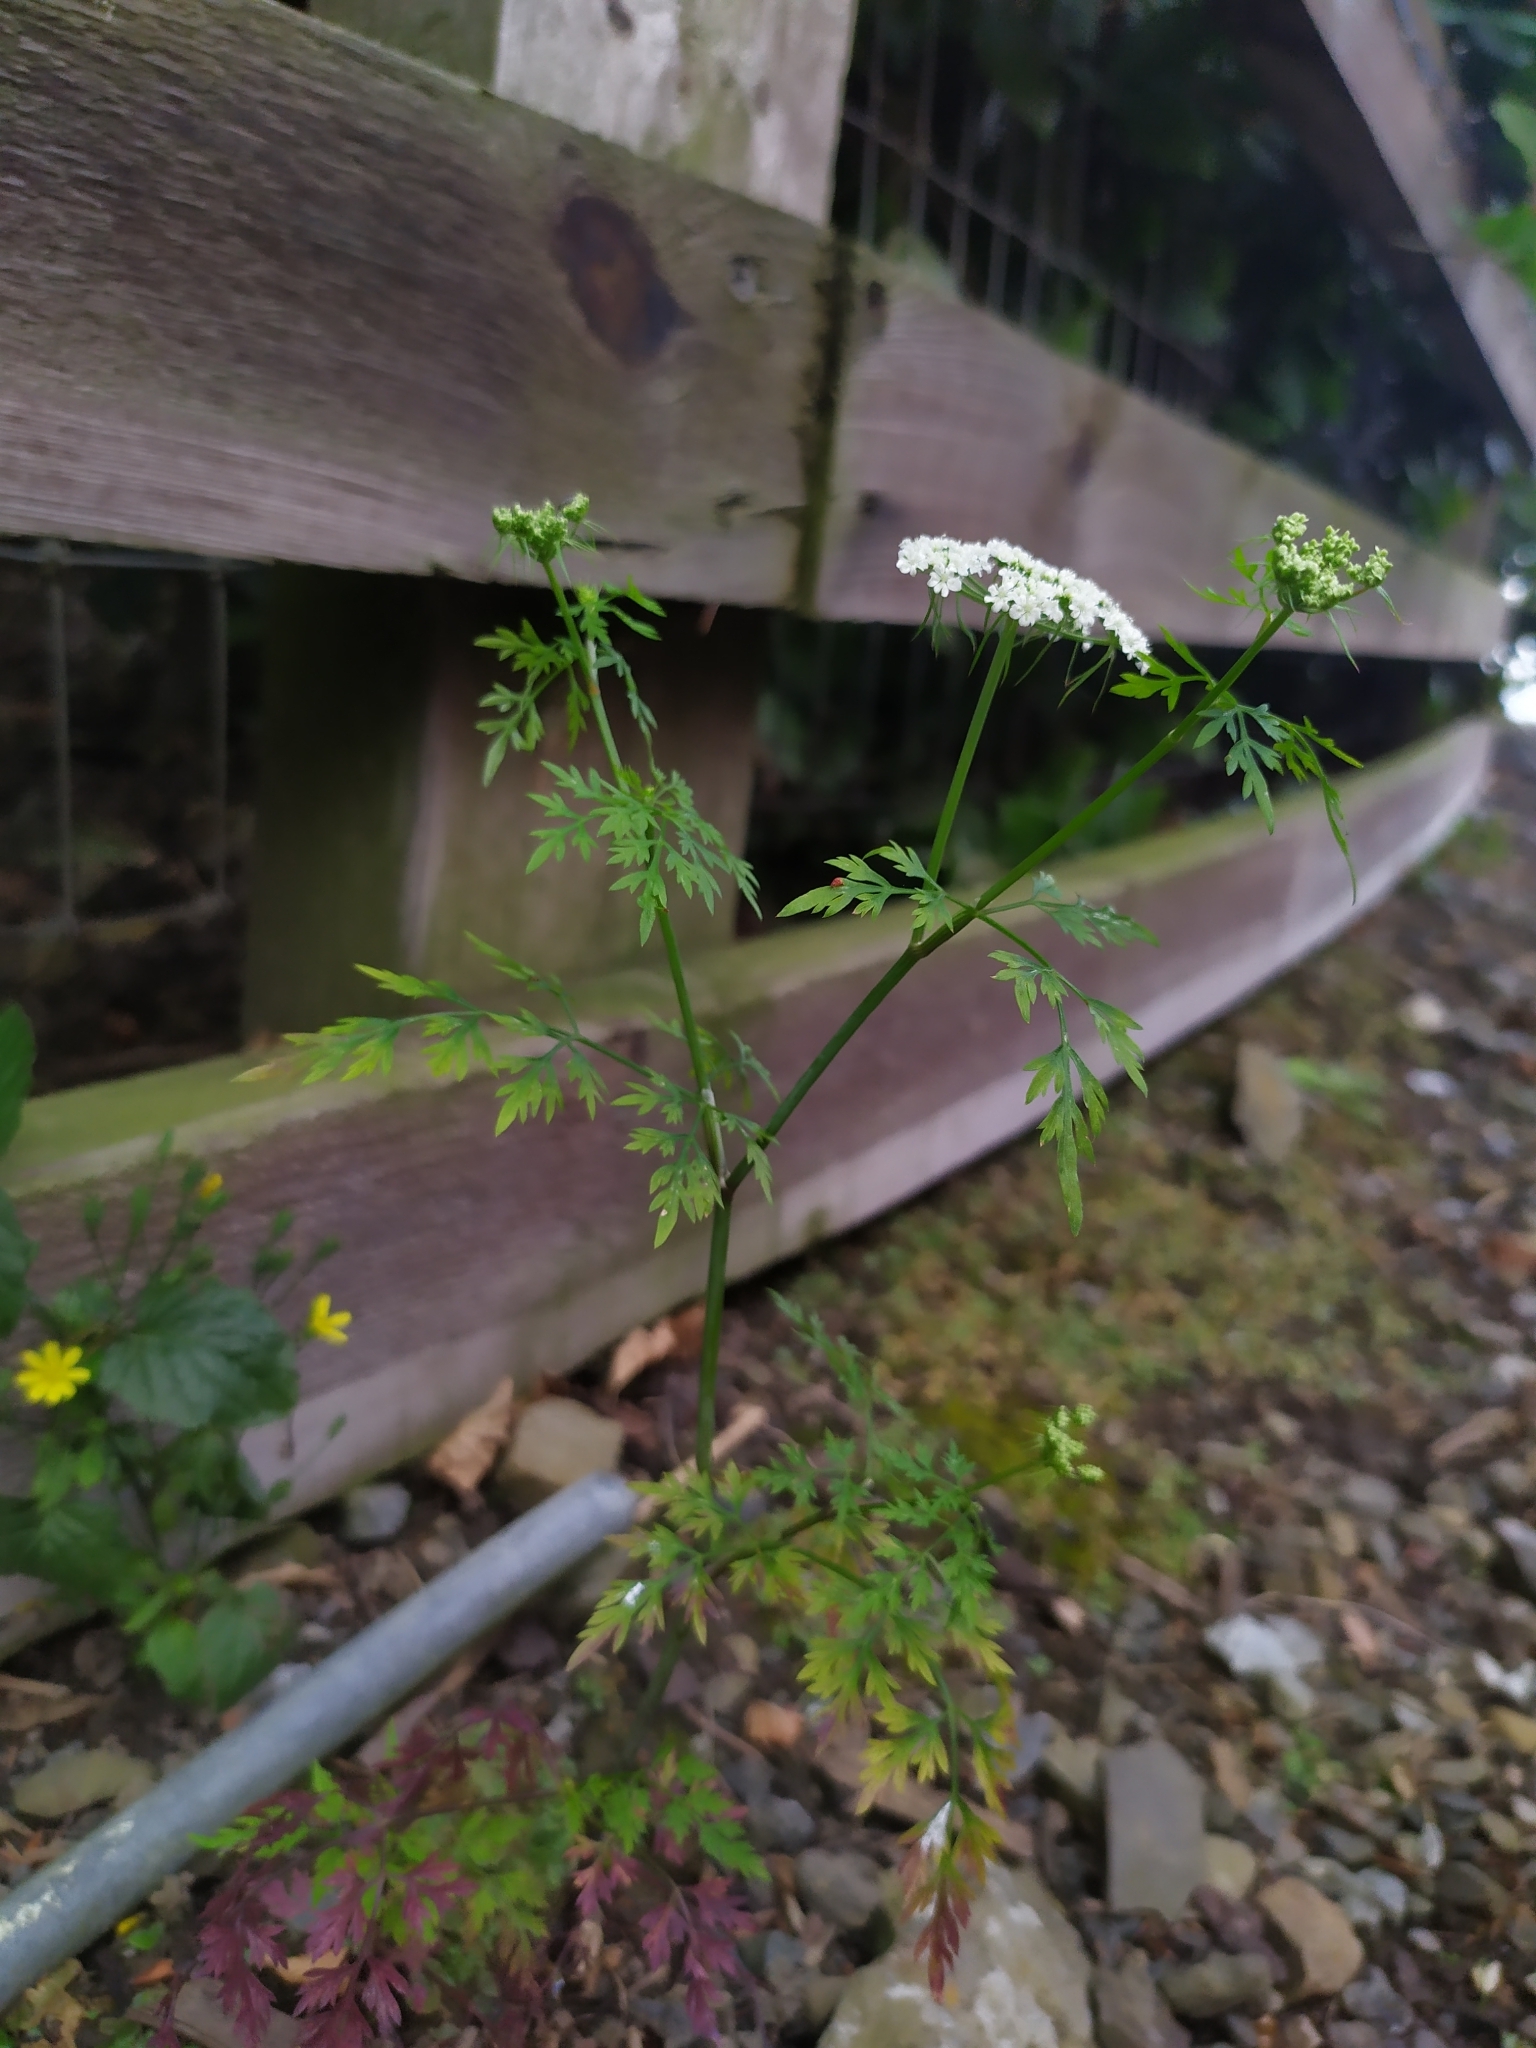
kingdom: Plantae
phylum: Tracheophyta
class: Magnoliopsida
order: Apiales
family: Apiaceae
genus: Aethusa
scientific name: Aethusa cynapium
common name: Fool's parsley
